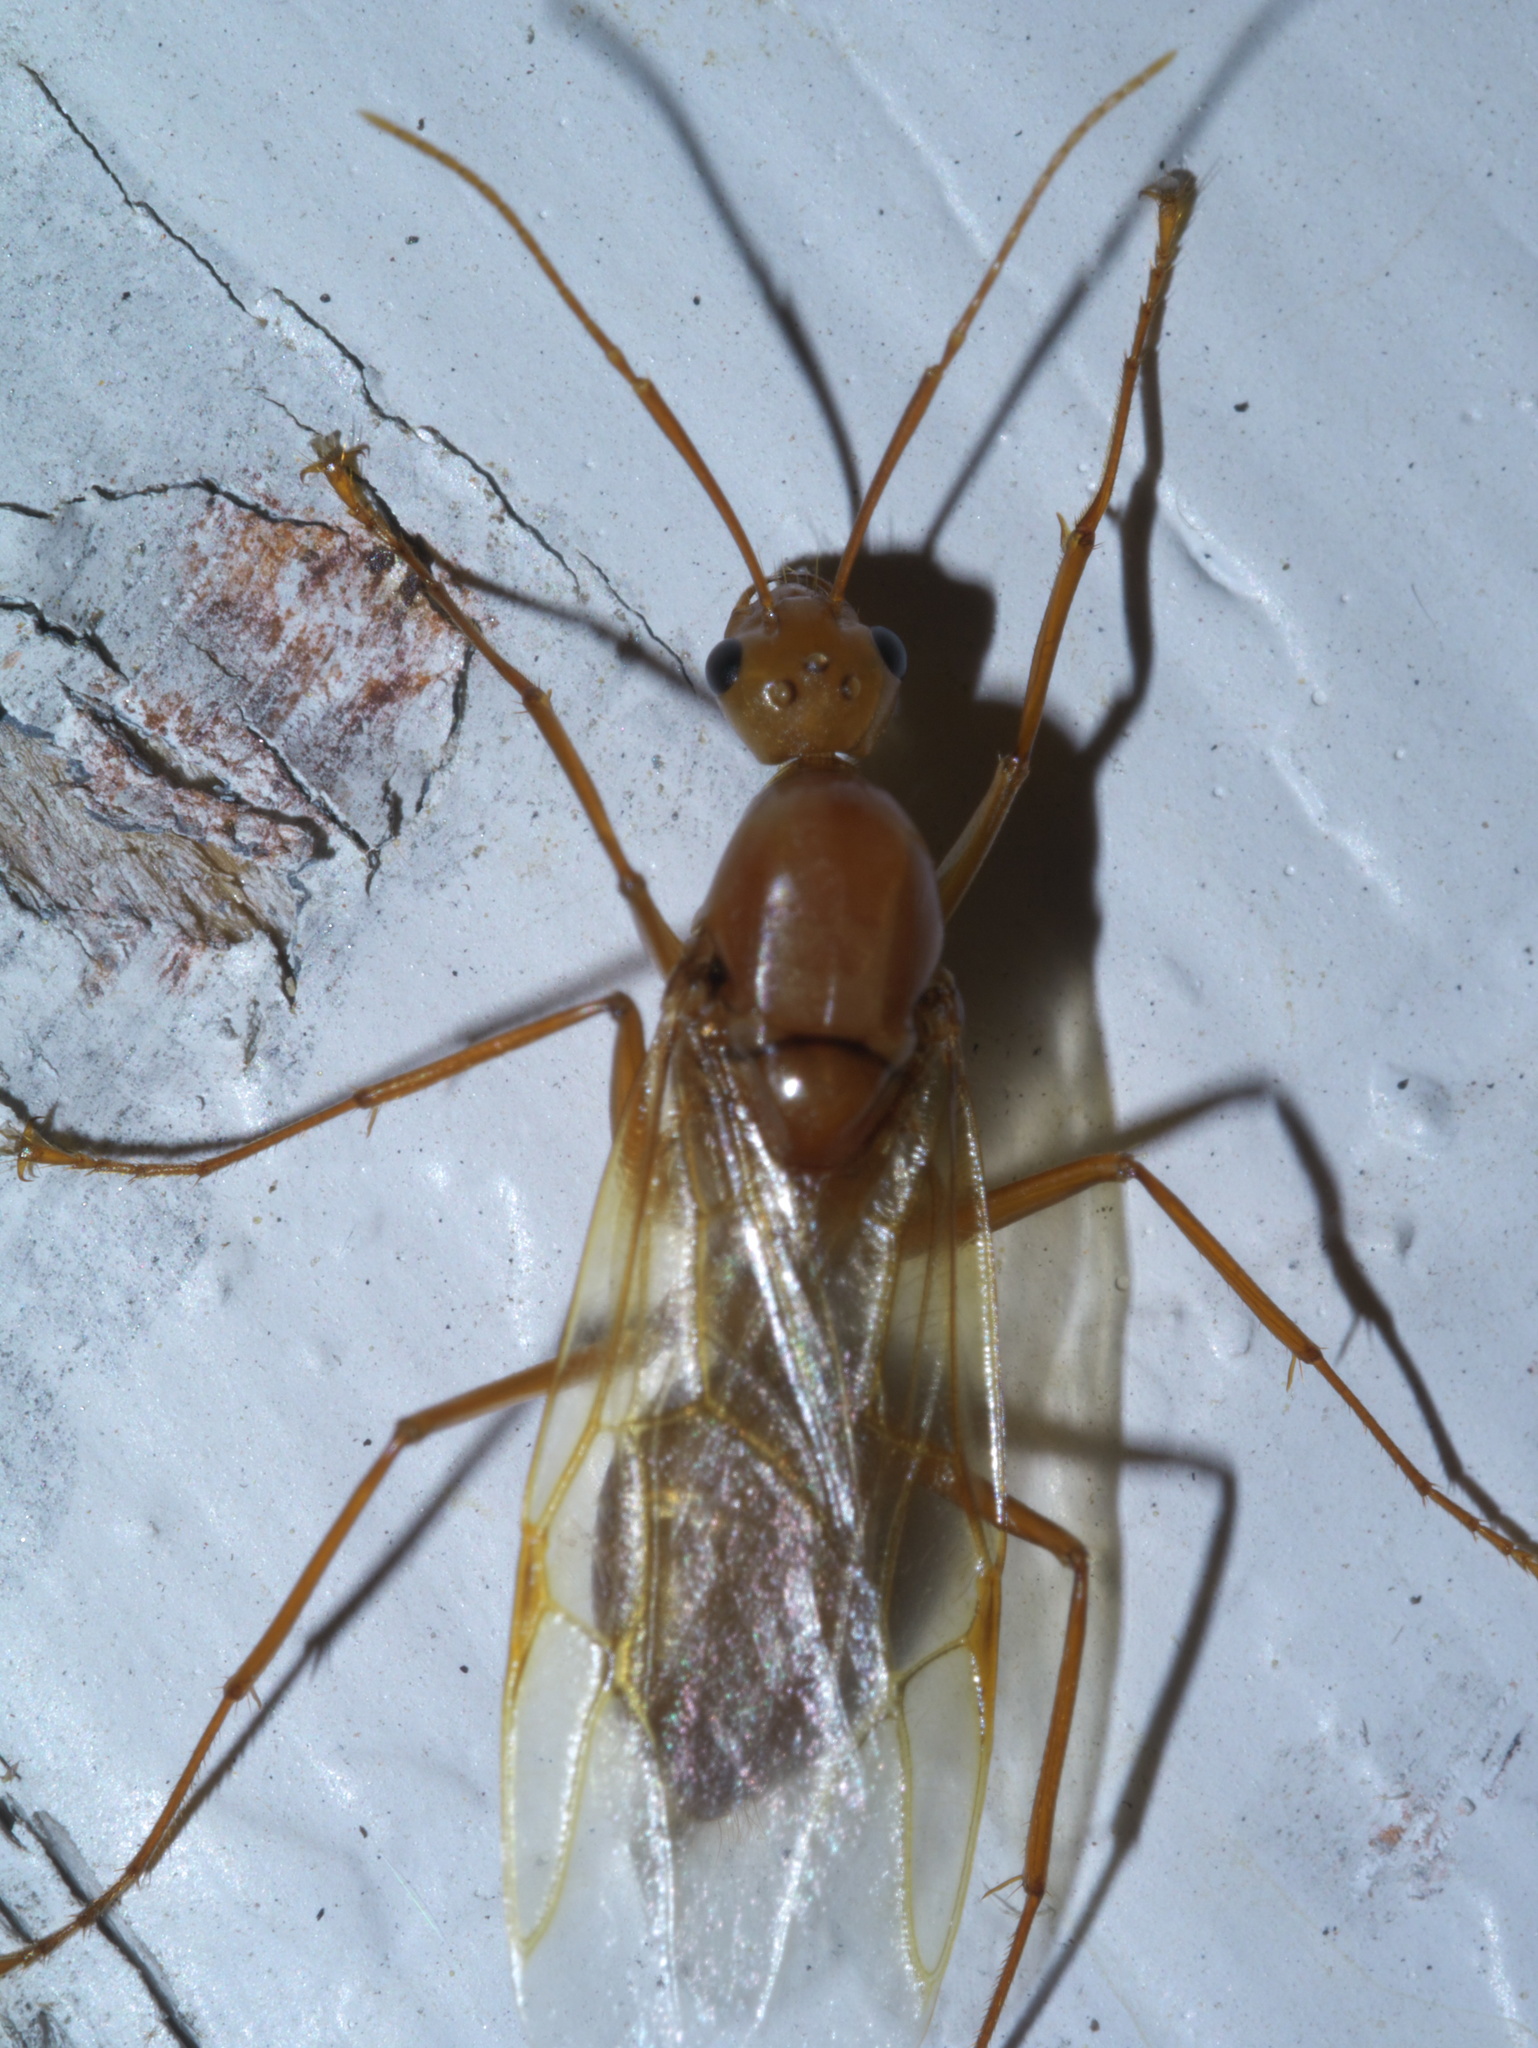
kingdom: Animalia
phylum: Arthropoda
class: Insecta
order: Hymenoptera
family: Formicidae
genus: Camponotus
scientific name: Camponotus castaneus
